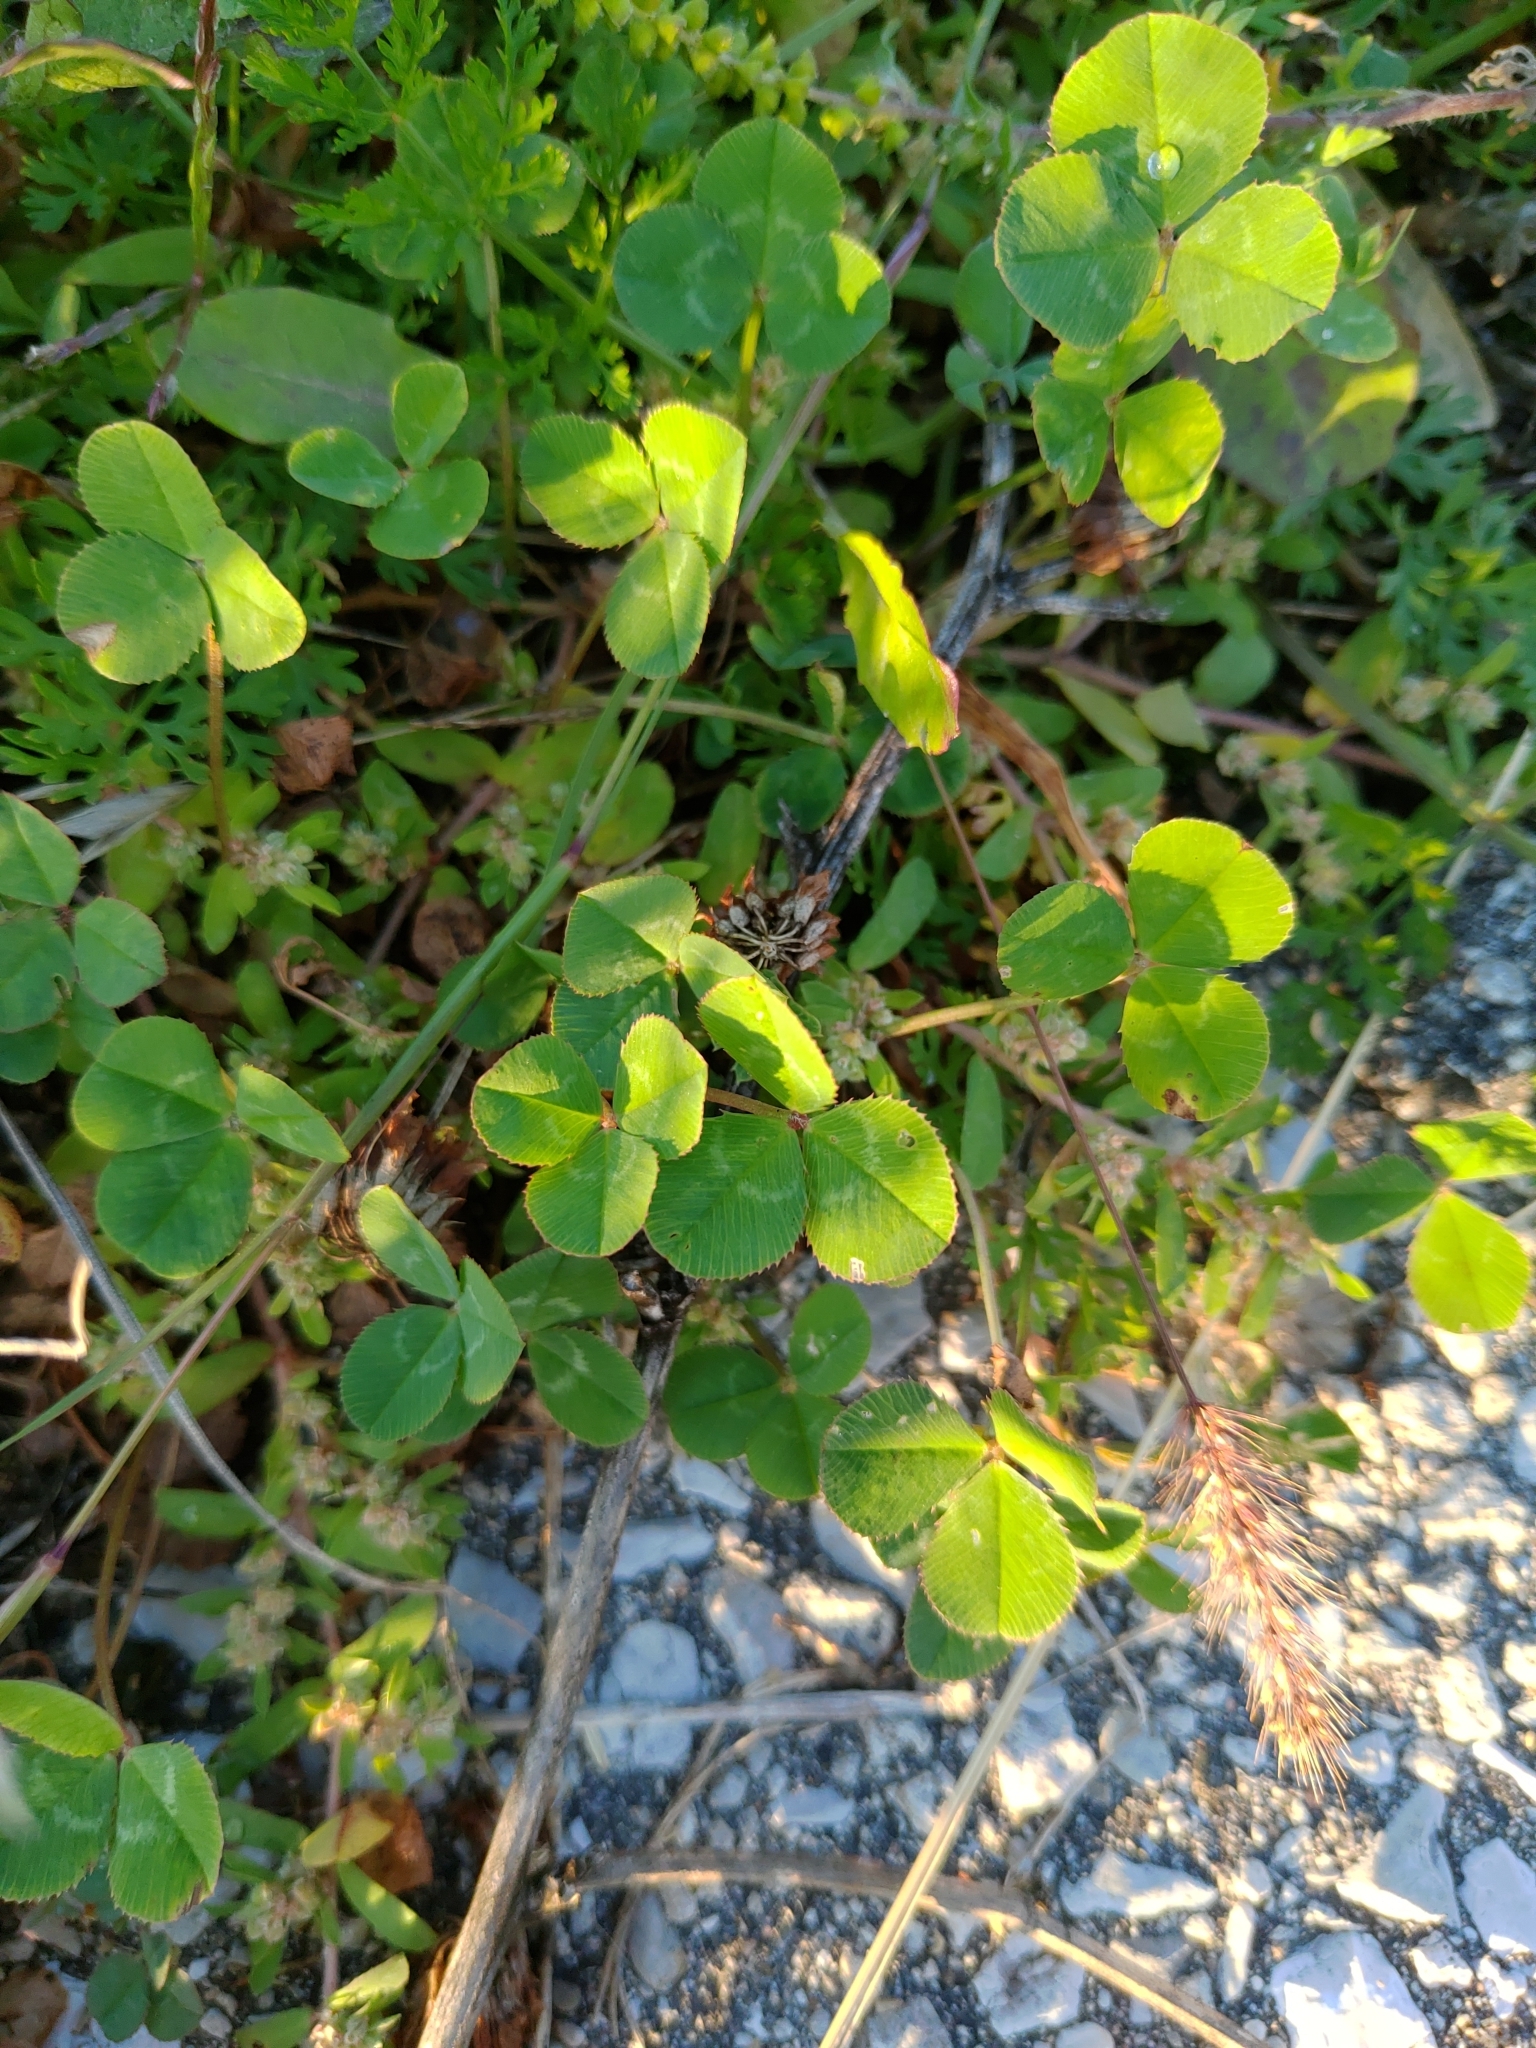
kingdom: Plantae
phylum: Tracheophyta
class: Magnoliopsida
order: Fabales
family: Fabaceae
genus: Trifolium
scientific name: Trifolium repens
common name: White clover
